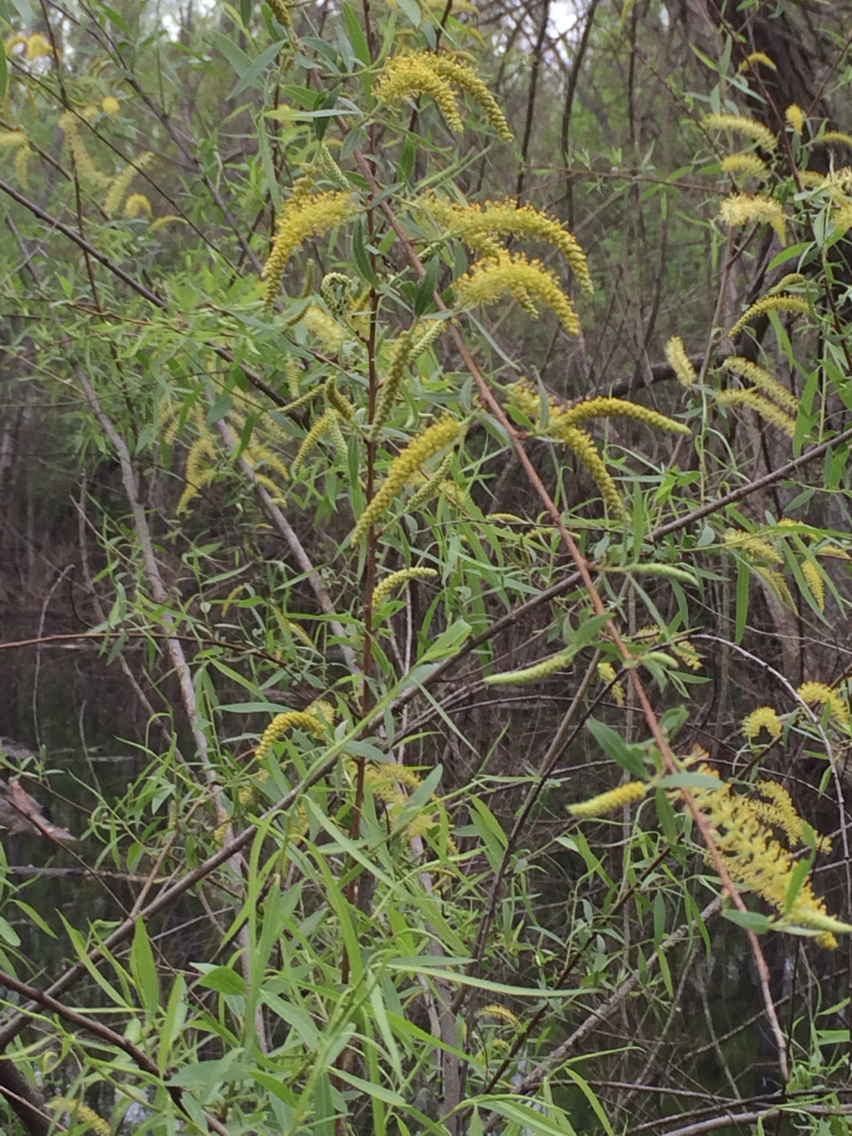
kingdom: Plantae
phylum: Tracheophyta
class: Magnoliopsida
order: Malpighiales
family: Salicaceae
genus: Salix
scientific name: Salix nigra
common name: Black willow
